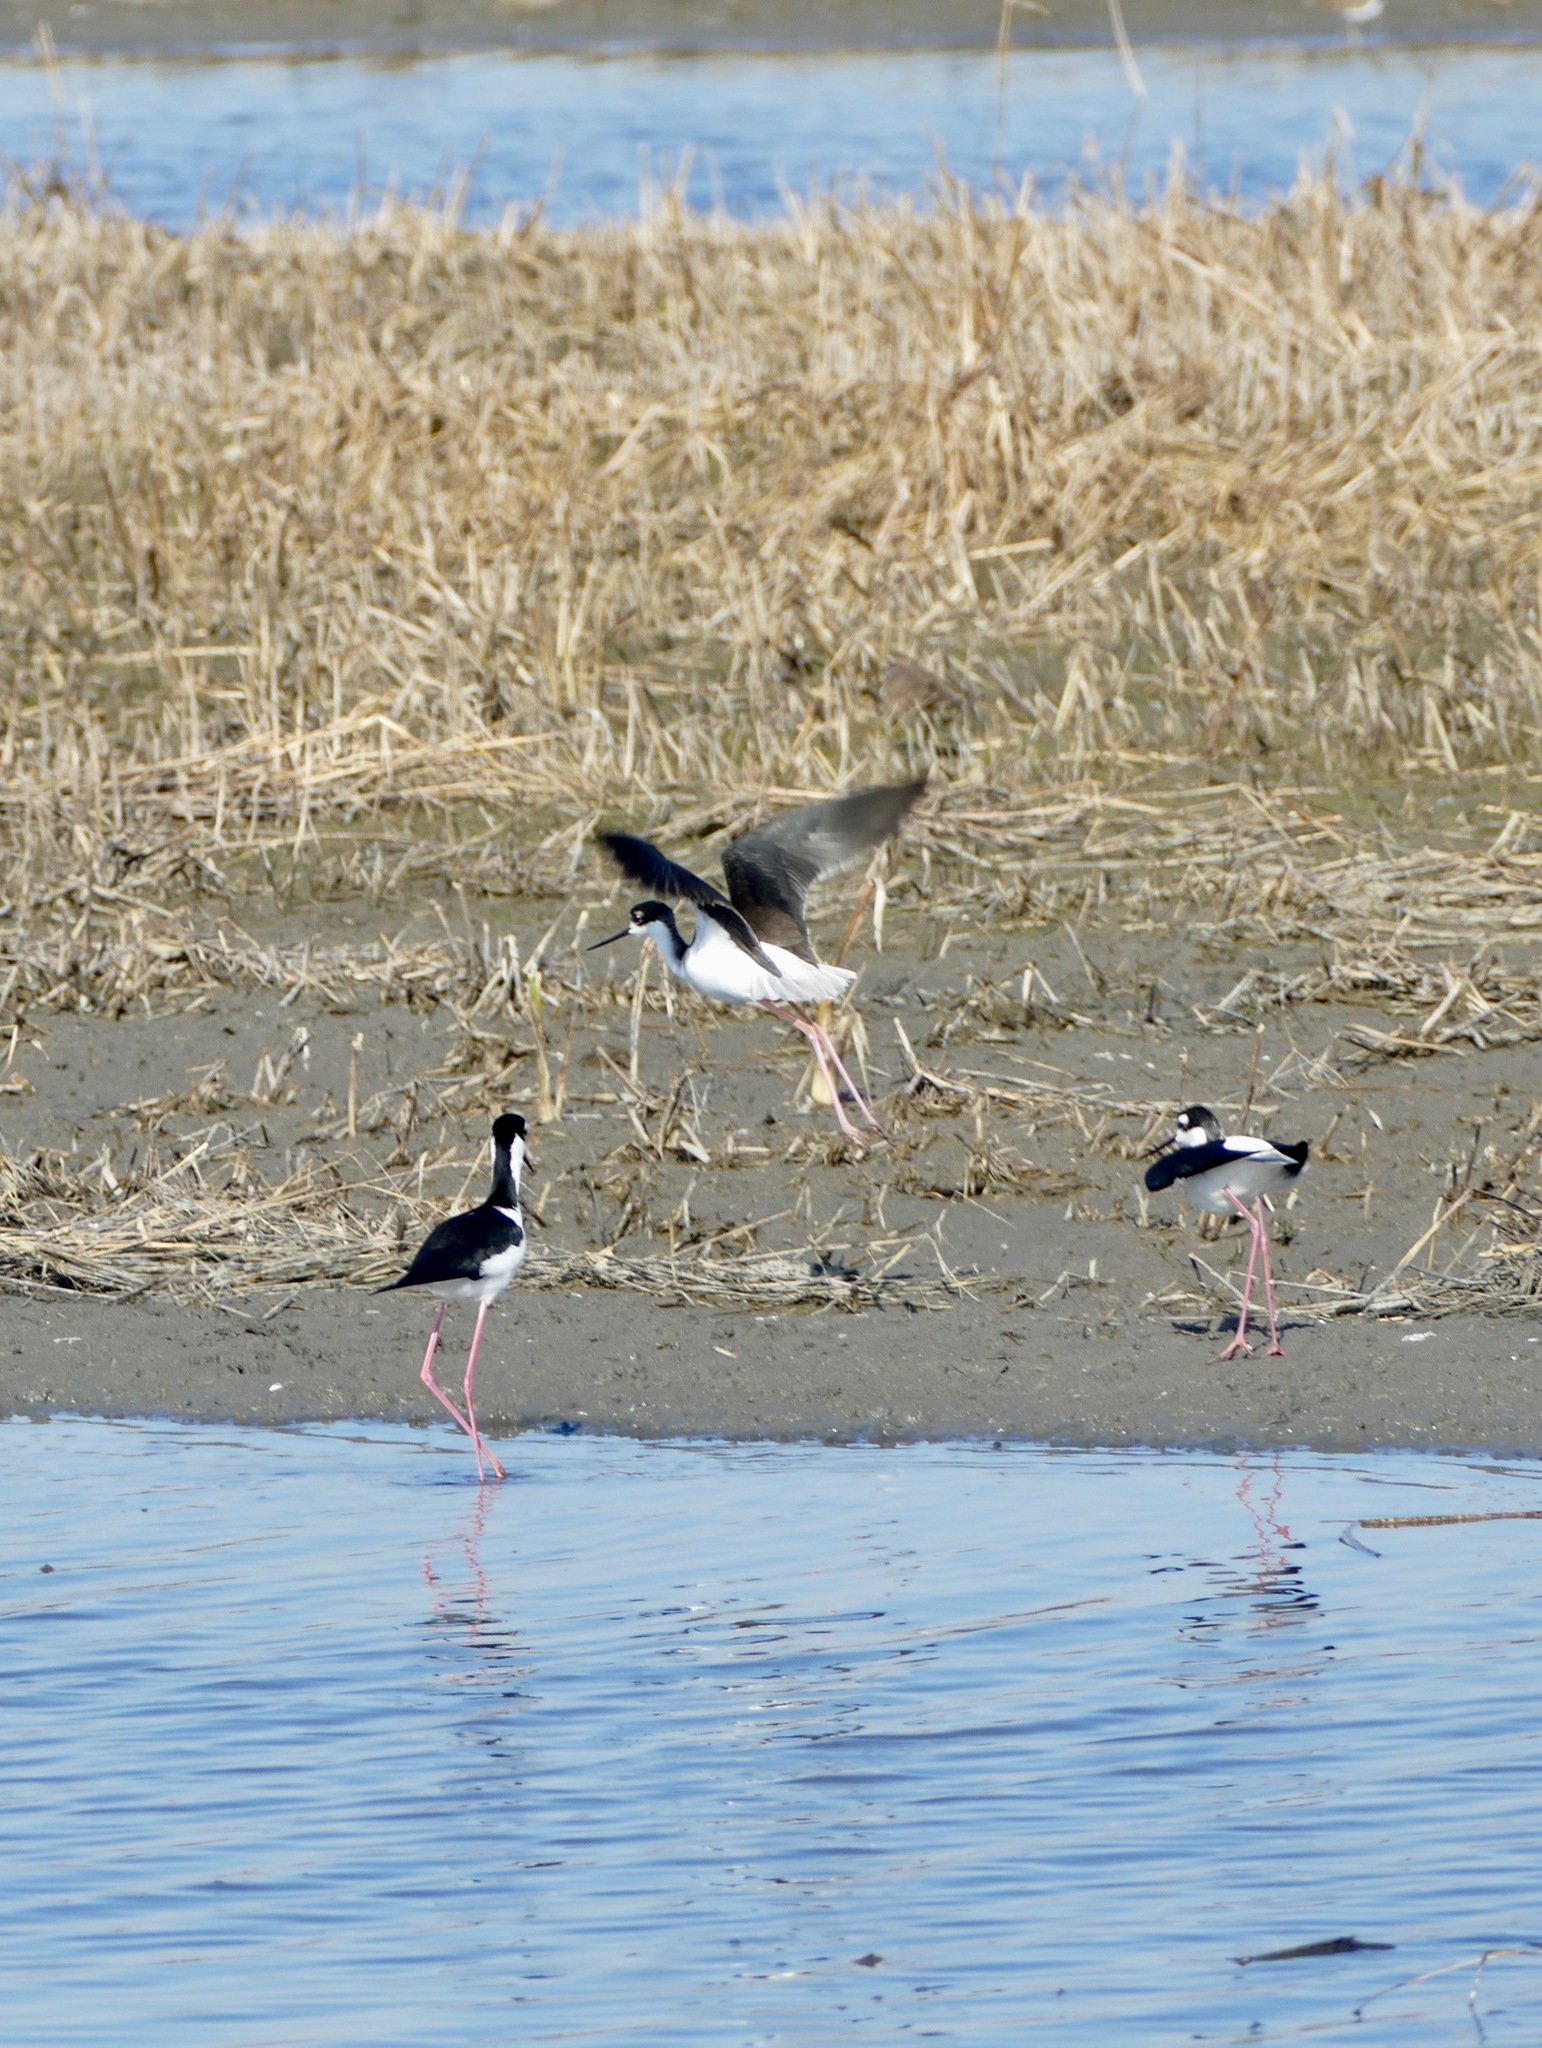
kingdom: Animalia
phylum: Chordata
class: Aves
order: Charadriiformes
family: Recurvirostridae
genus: Himantopus
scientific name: Himantopus mexicanus
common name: Black-necked stilt
